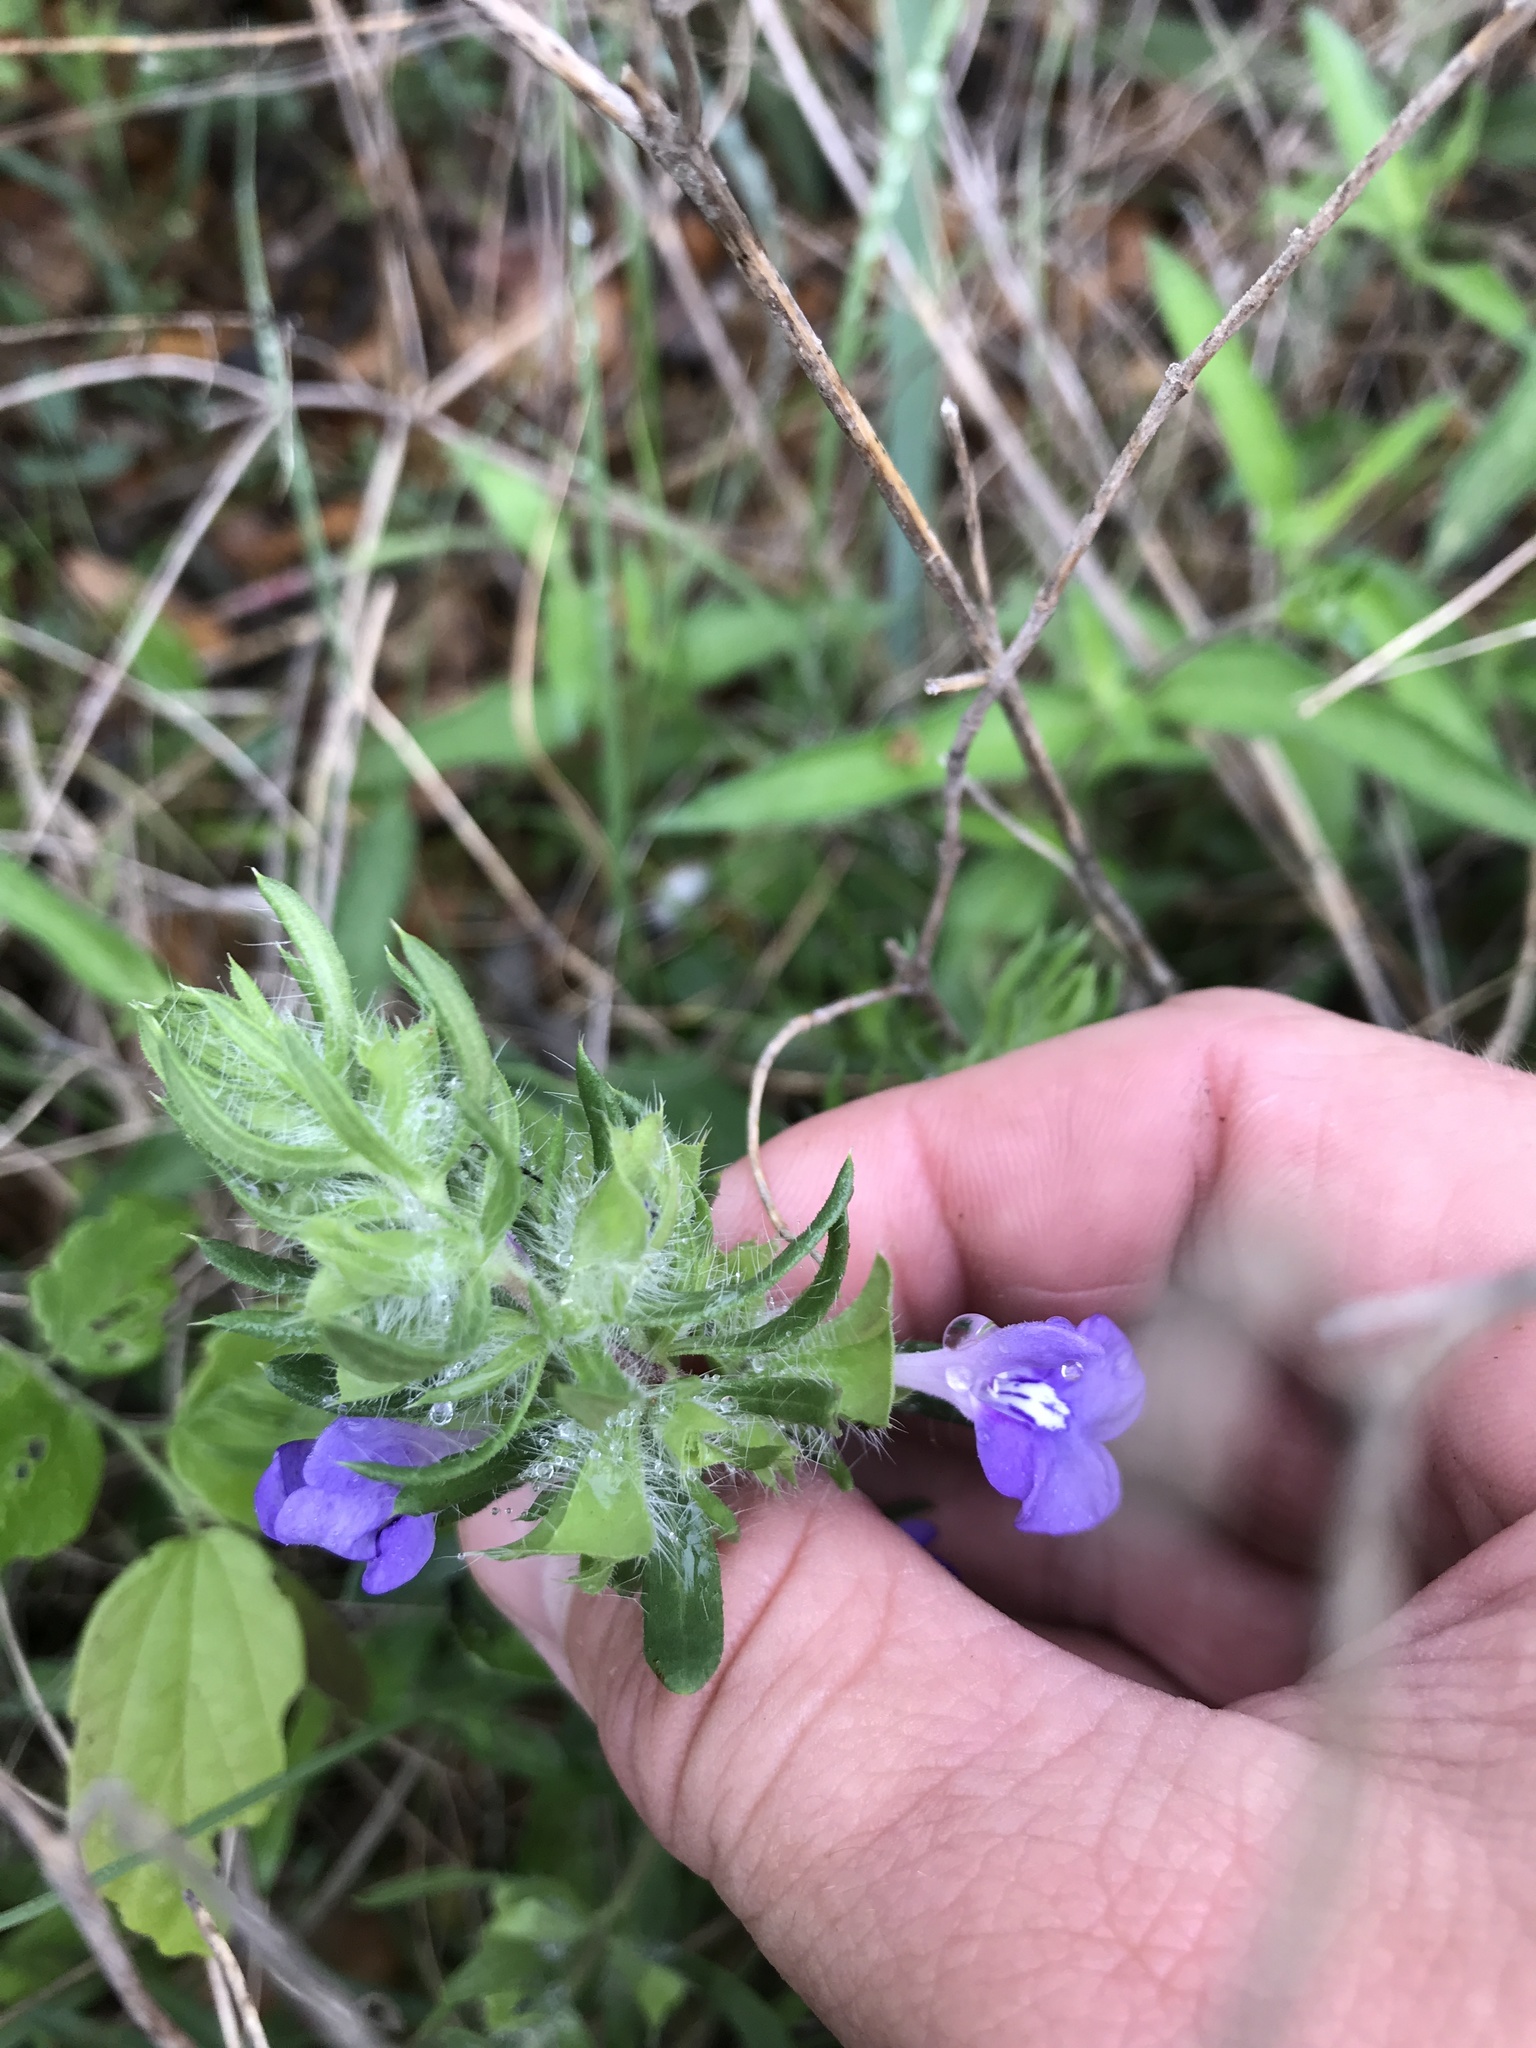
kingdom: Plantae
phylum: Tracheophyta
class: Magnoliopsida
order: Lamiales
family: Lamiaceae
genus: Salvia
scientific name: Salvia texana
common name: Texas sage
